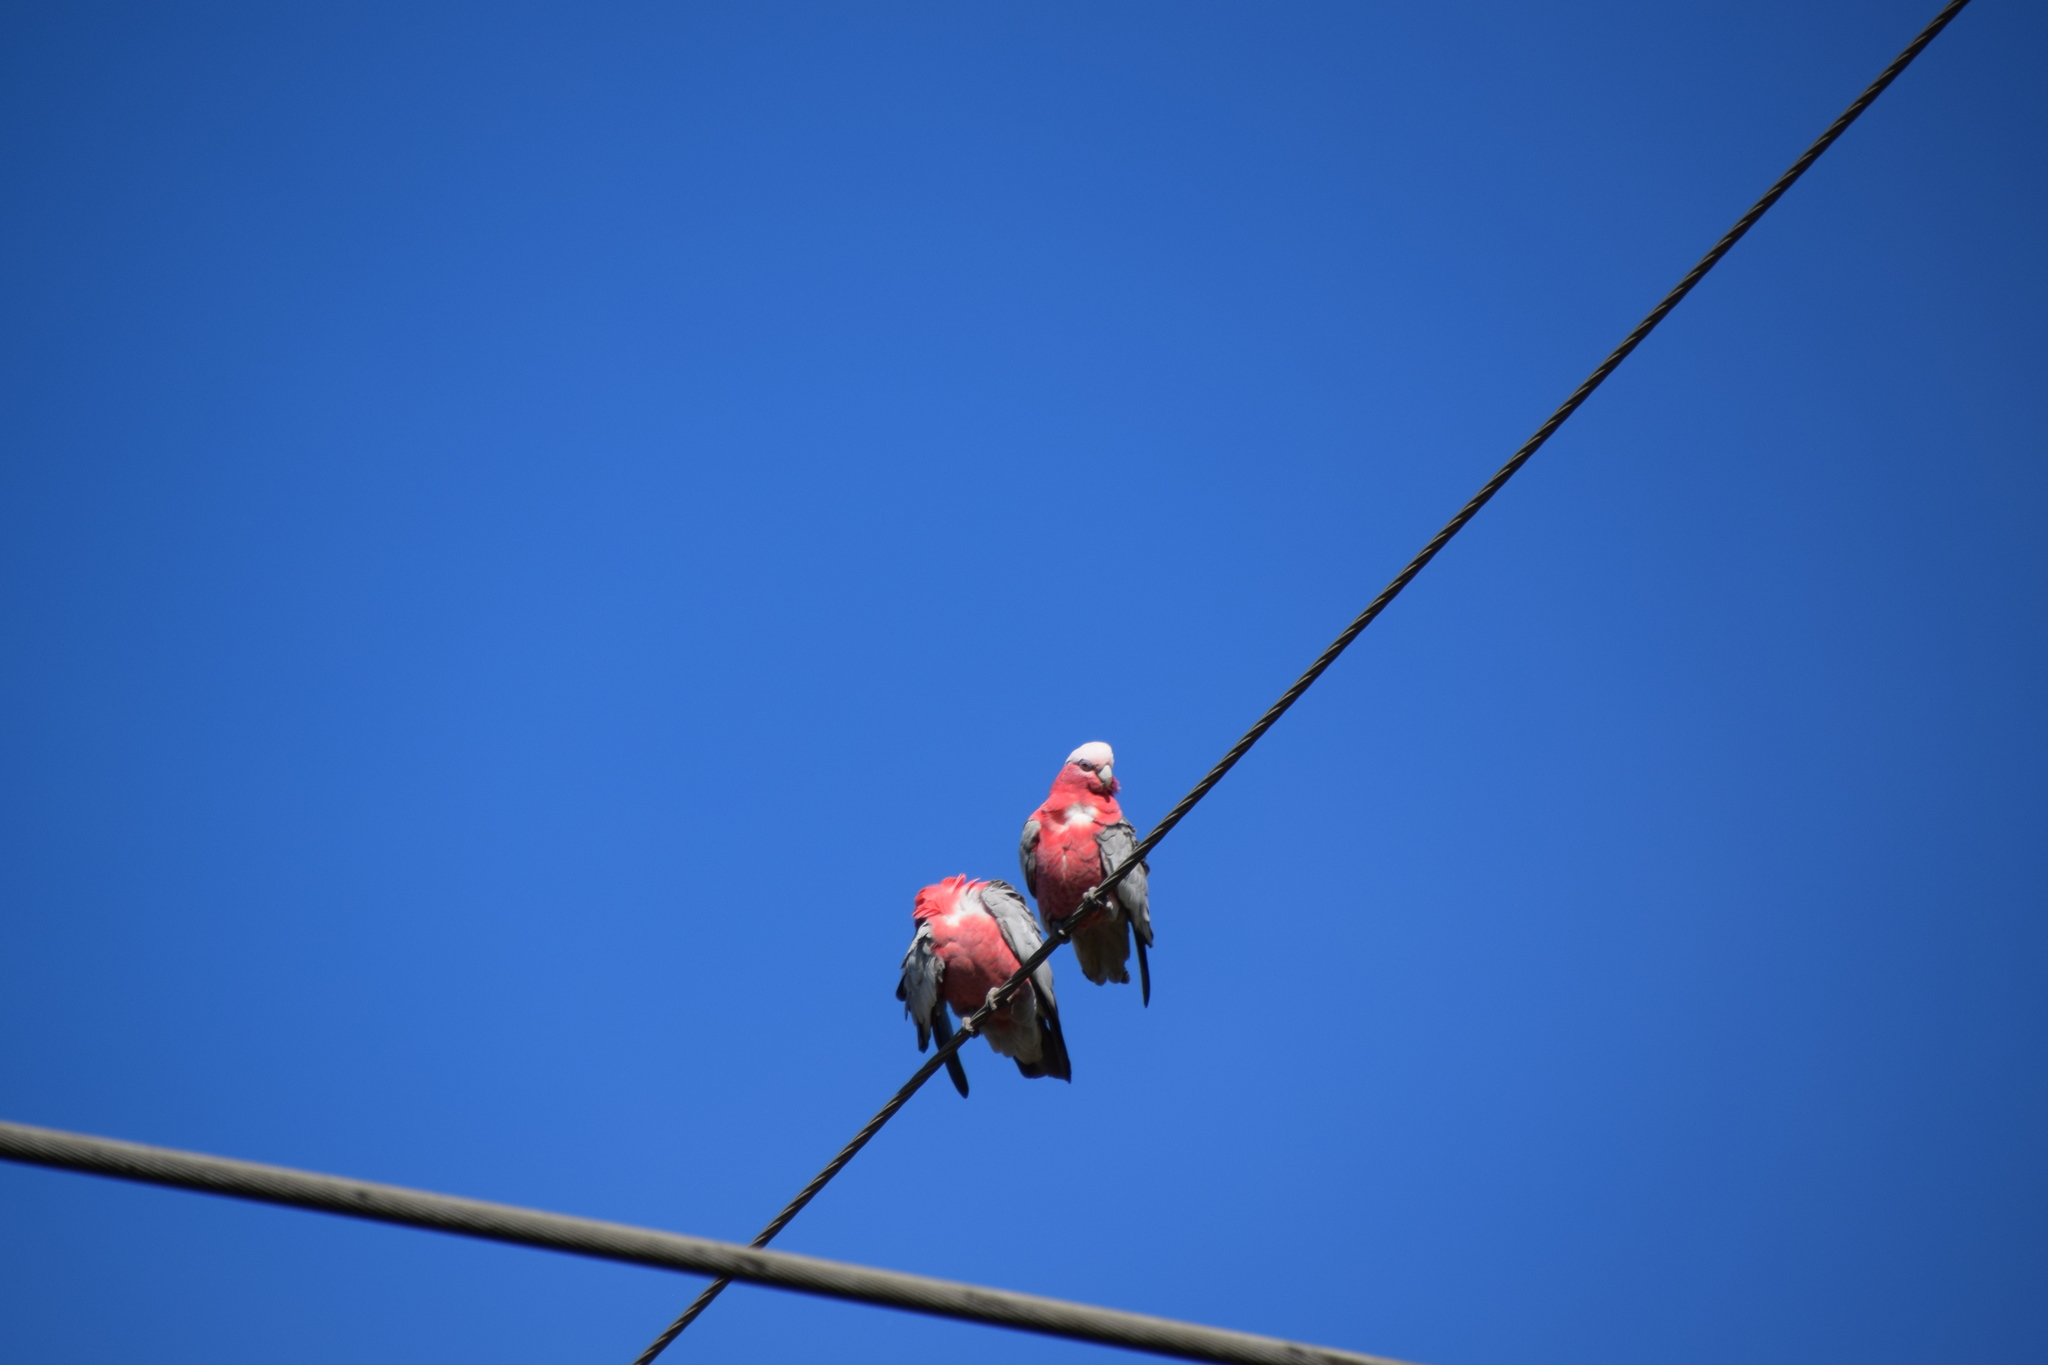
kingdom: Animalia
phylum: Chordata
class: Aves
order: Psittaciformes
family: Psittacidae
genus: Eolophus
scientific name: Eolophus roseicapilla
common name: Galah
